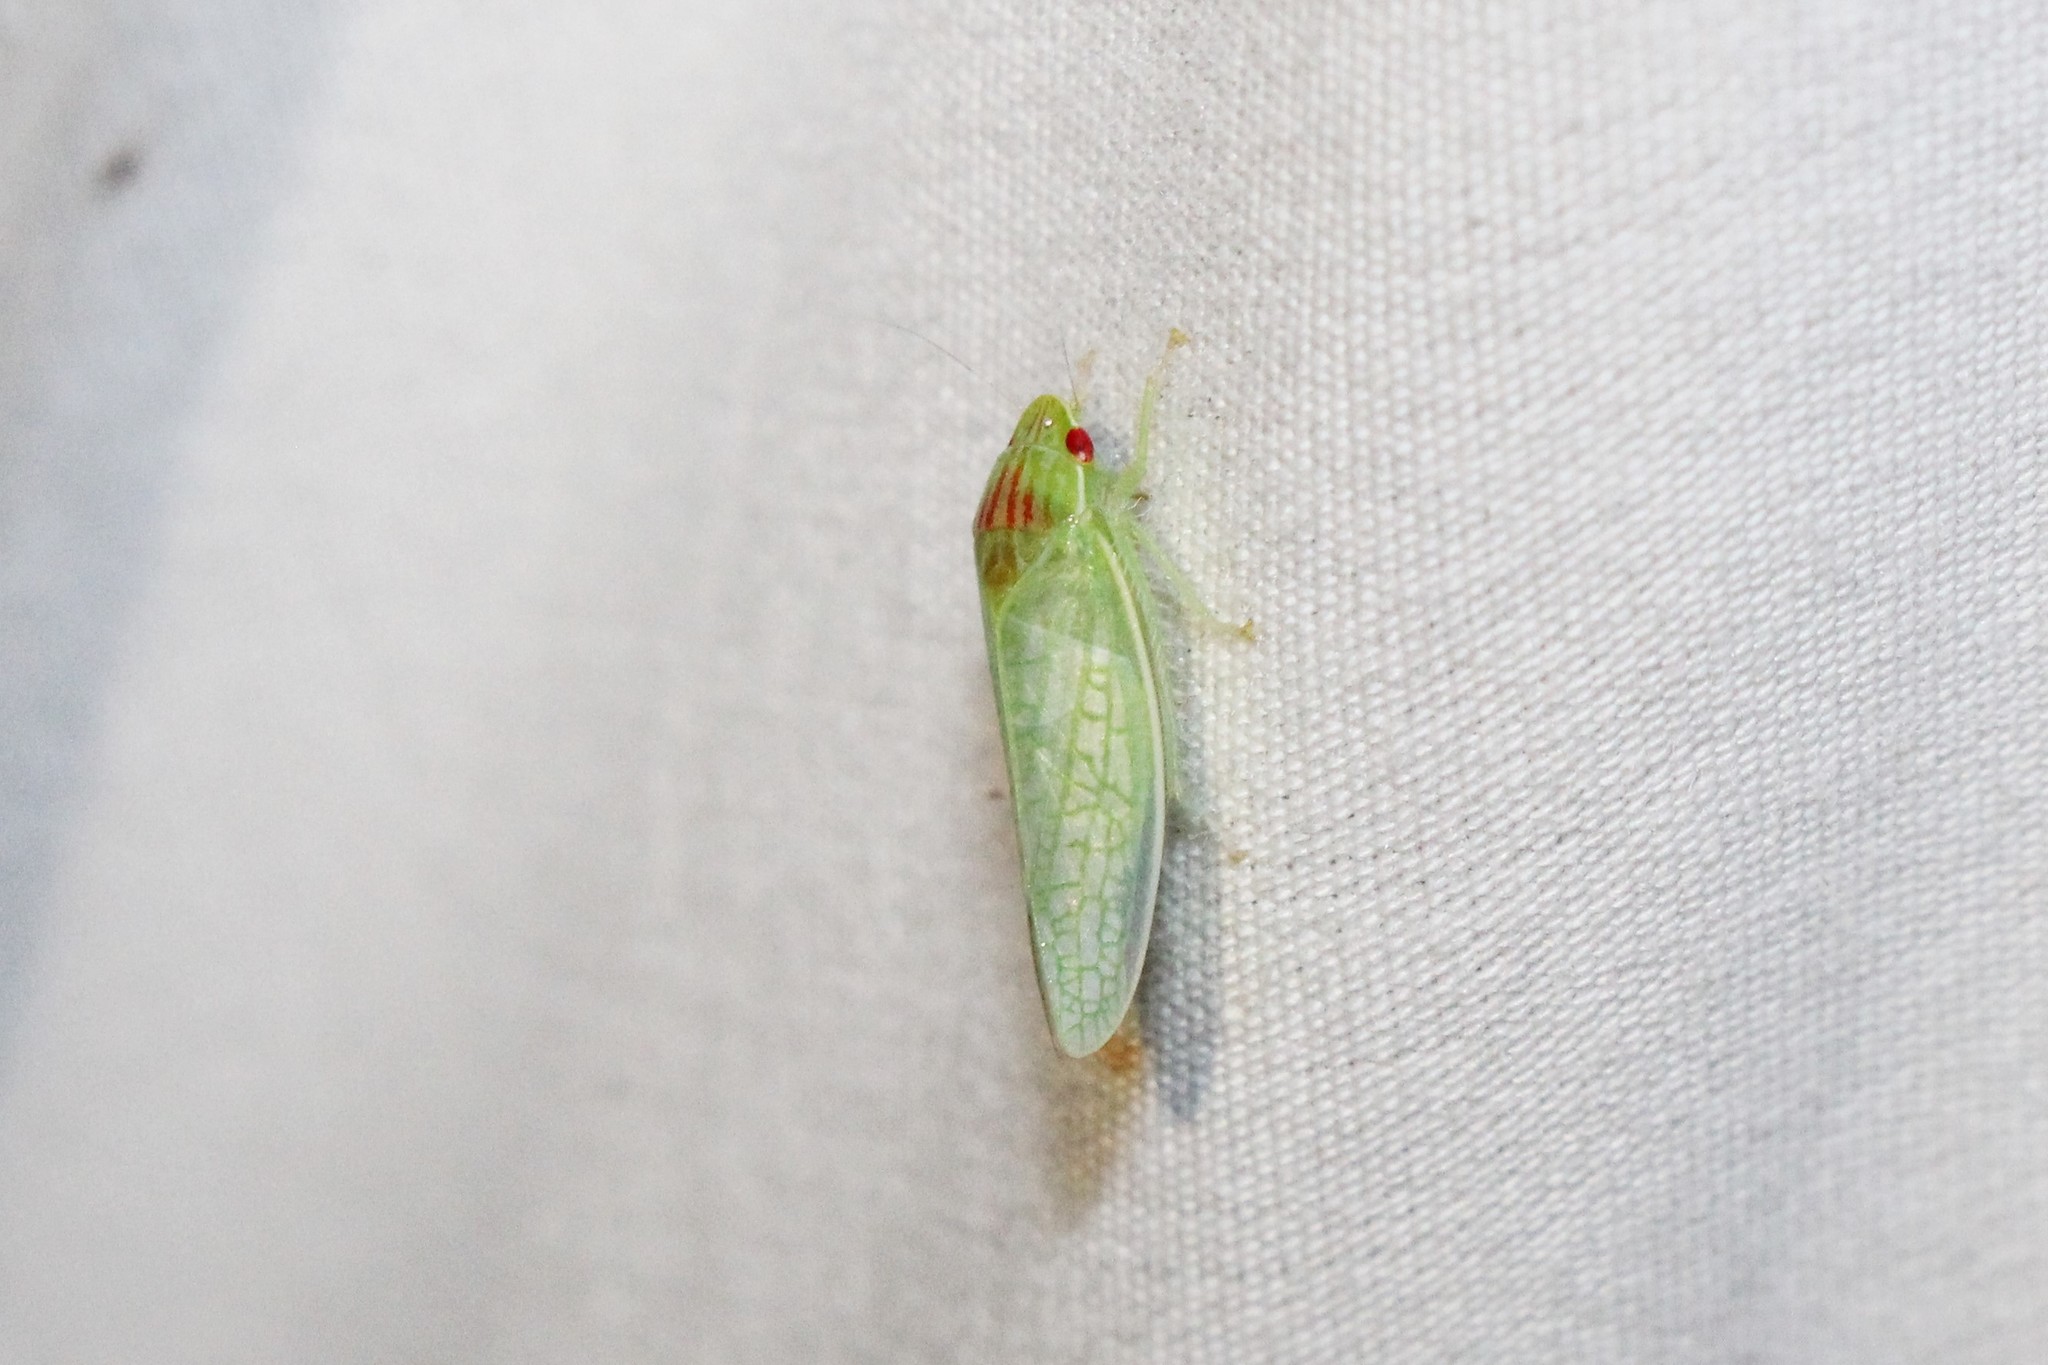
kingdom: Animalia
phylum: Arthropoda
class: Insecta
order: Hemiptera
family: Cicadellidae
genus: Gyponana
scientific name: Gyponana octolineata
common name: Eight-lined leafhopper
